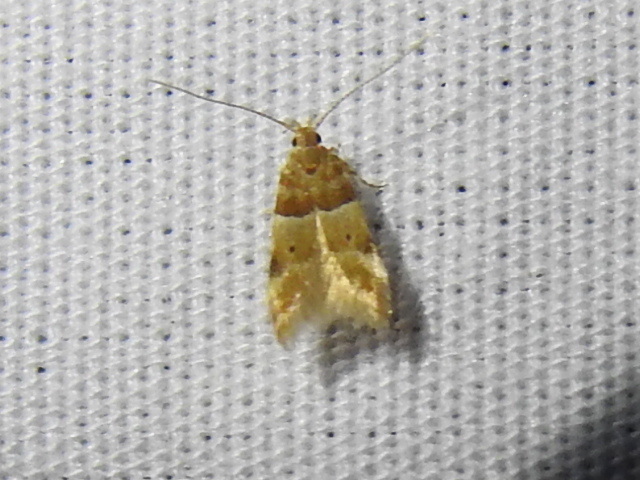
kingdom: Animalia
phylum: Arthropoda
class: Insecta
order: Lepidoptera
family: Gelechiidae
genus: Theisoa
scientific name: Theisoa constrictella
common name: Constricted twirler
